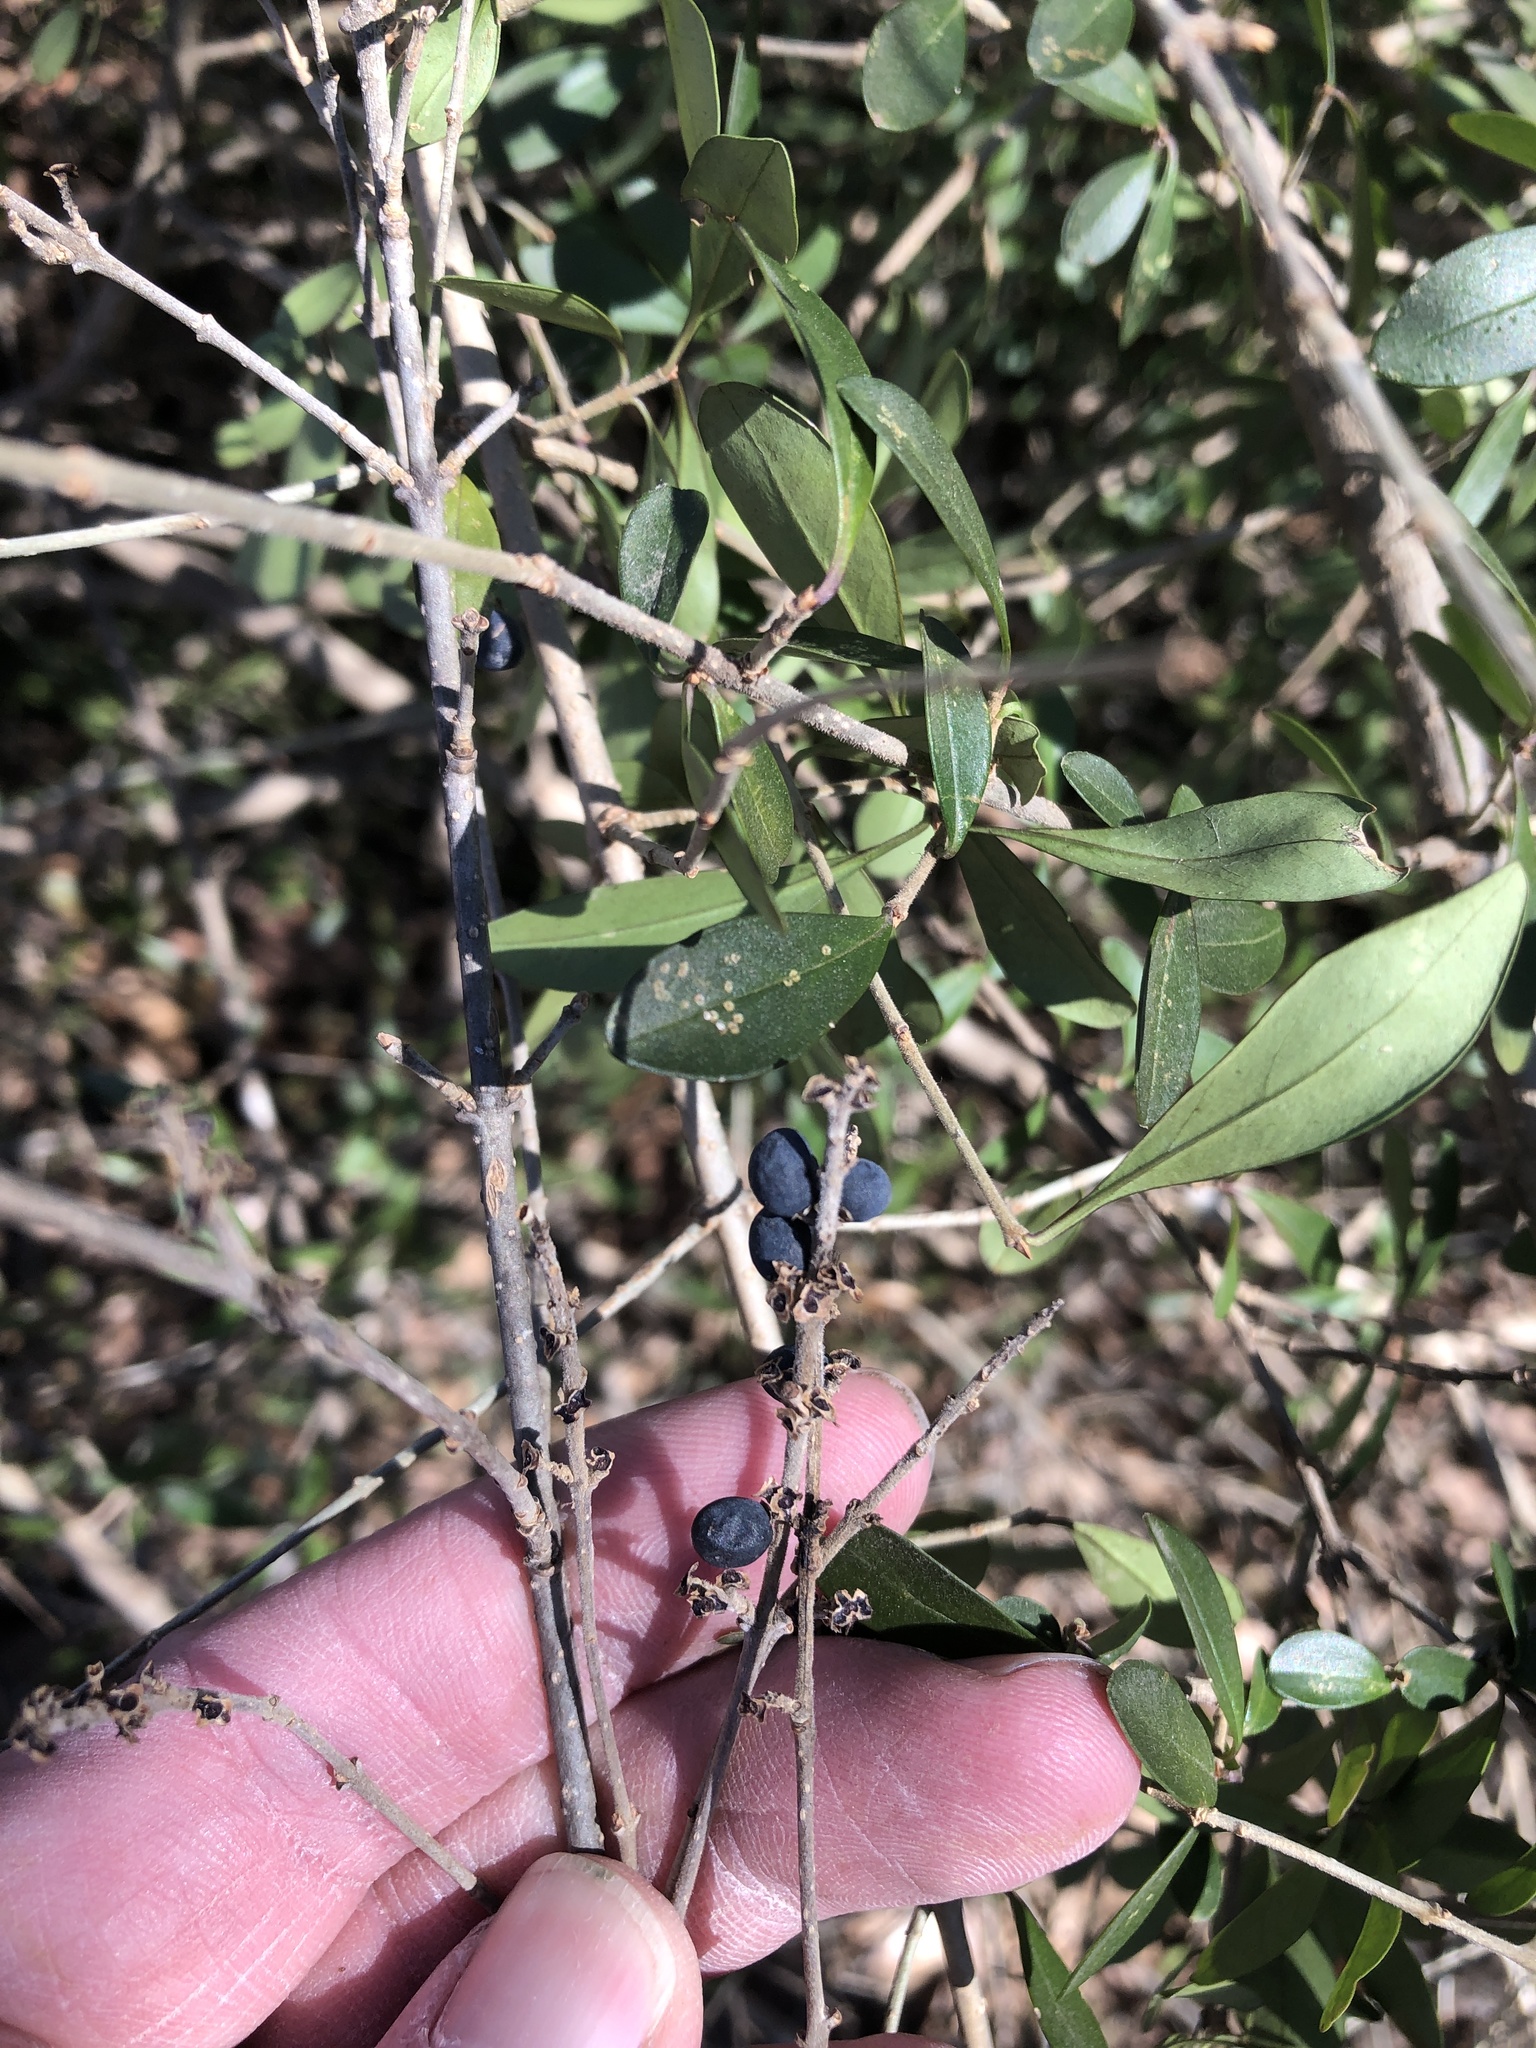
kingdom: Plantae
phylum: Tracheophyta
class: Magnoliopsida
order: Lamiales
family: Oleaceae
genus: Ligustrum
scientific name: Ligustrum quihoui
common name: Waxyleaf privet
